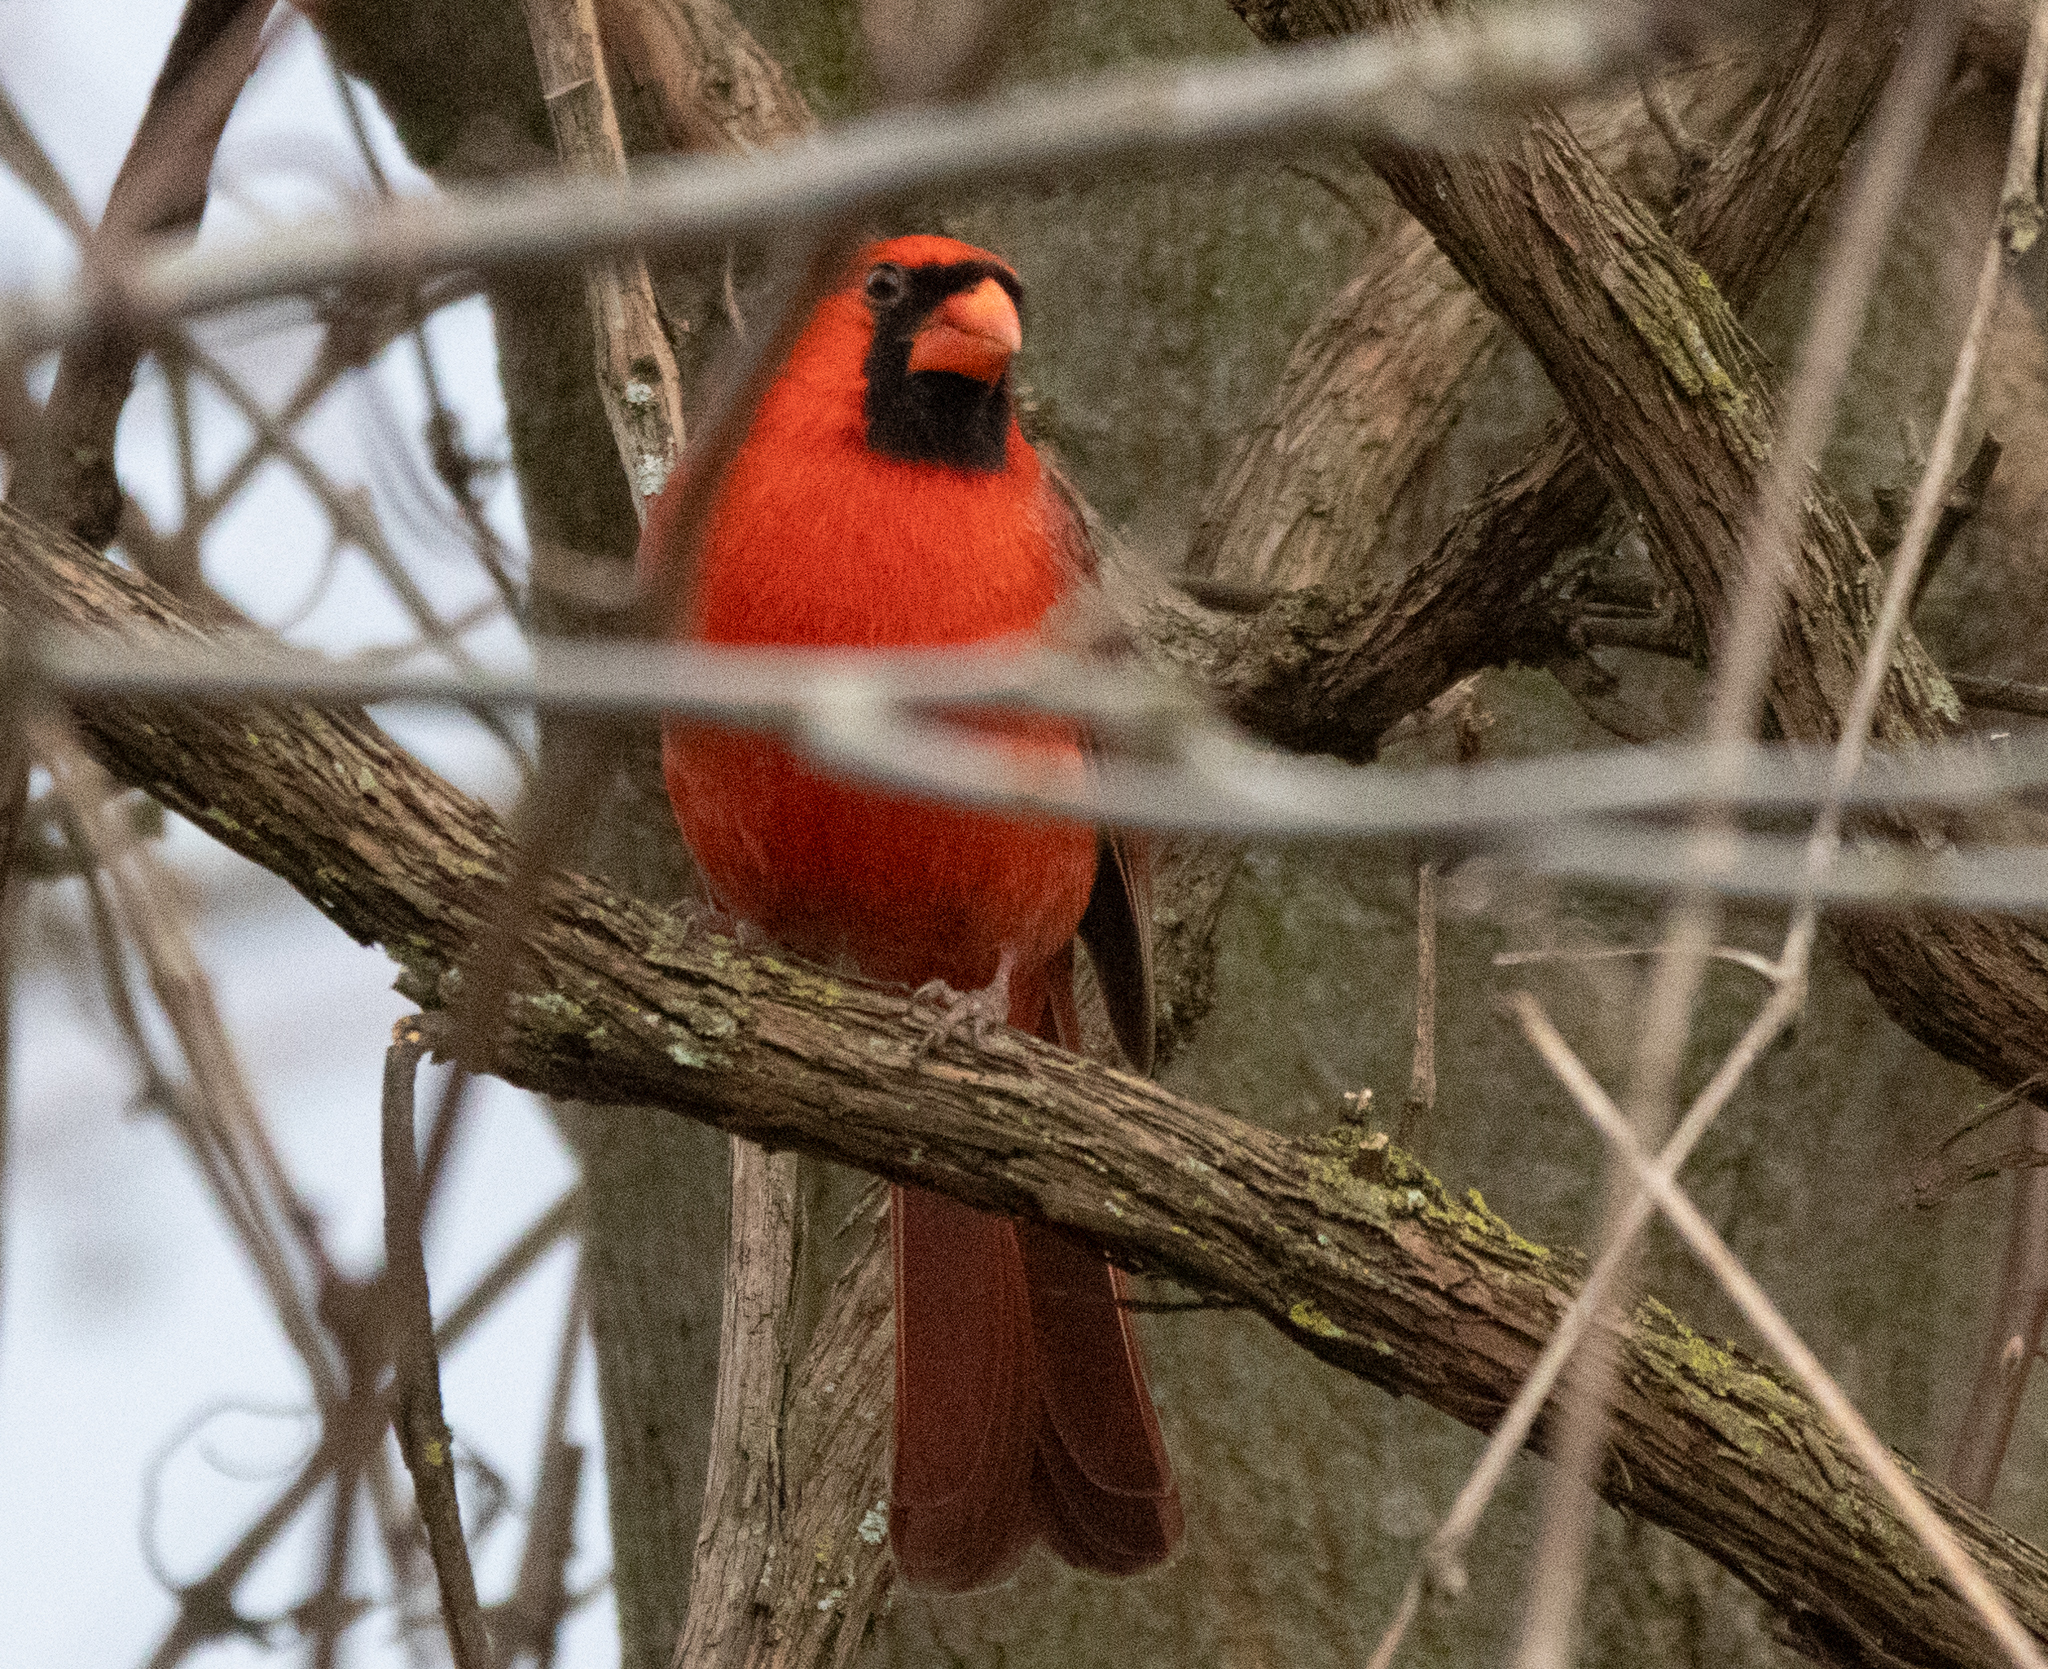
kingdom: Animalia
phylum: Chordata
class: Aves
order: Passeriformes
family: Cardinalidae
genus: Cardinalis
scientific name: Cardinalis cardinalis
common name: Northern cardinal
